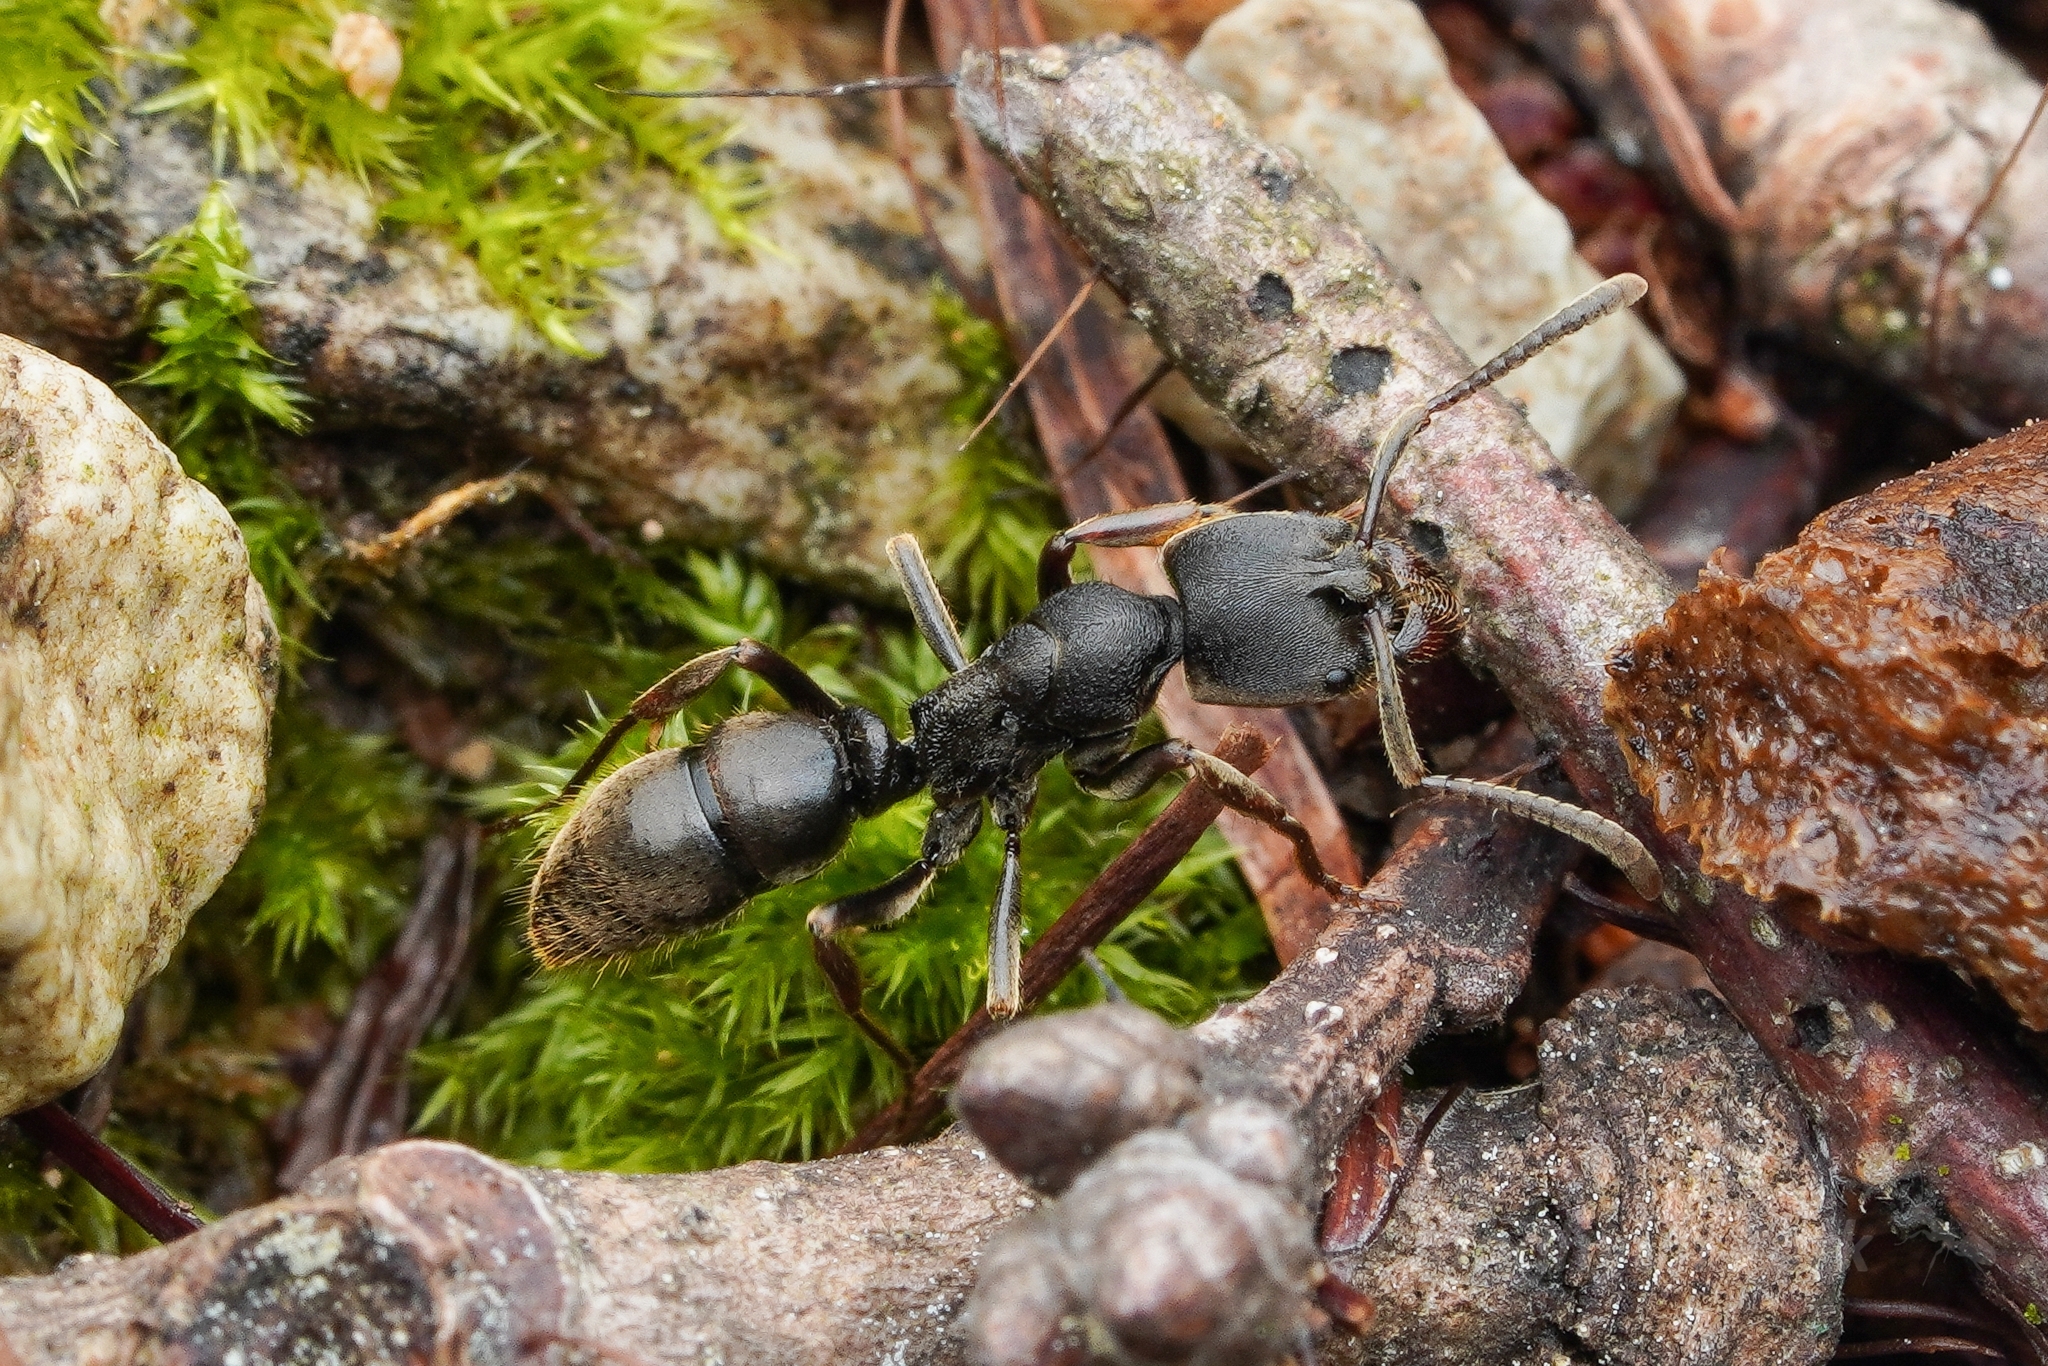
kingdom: Animalia
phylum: Arthropoda
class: Insecta
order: Hymenoptera
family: Formicidae
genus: Ectomomyrmex
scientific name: Ectomomyrmex javanus
